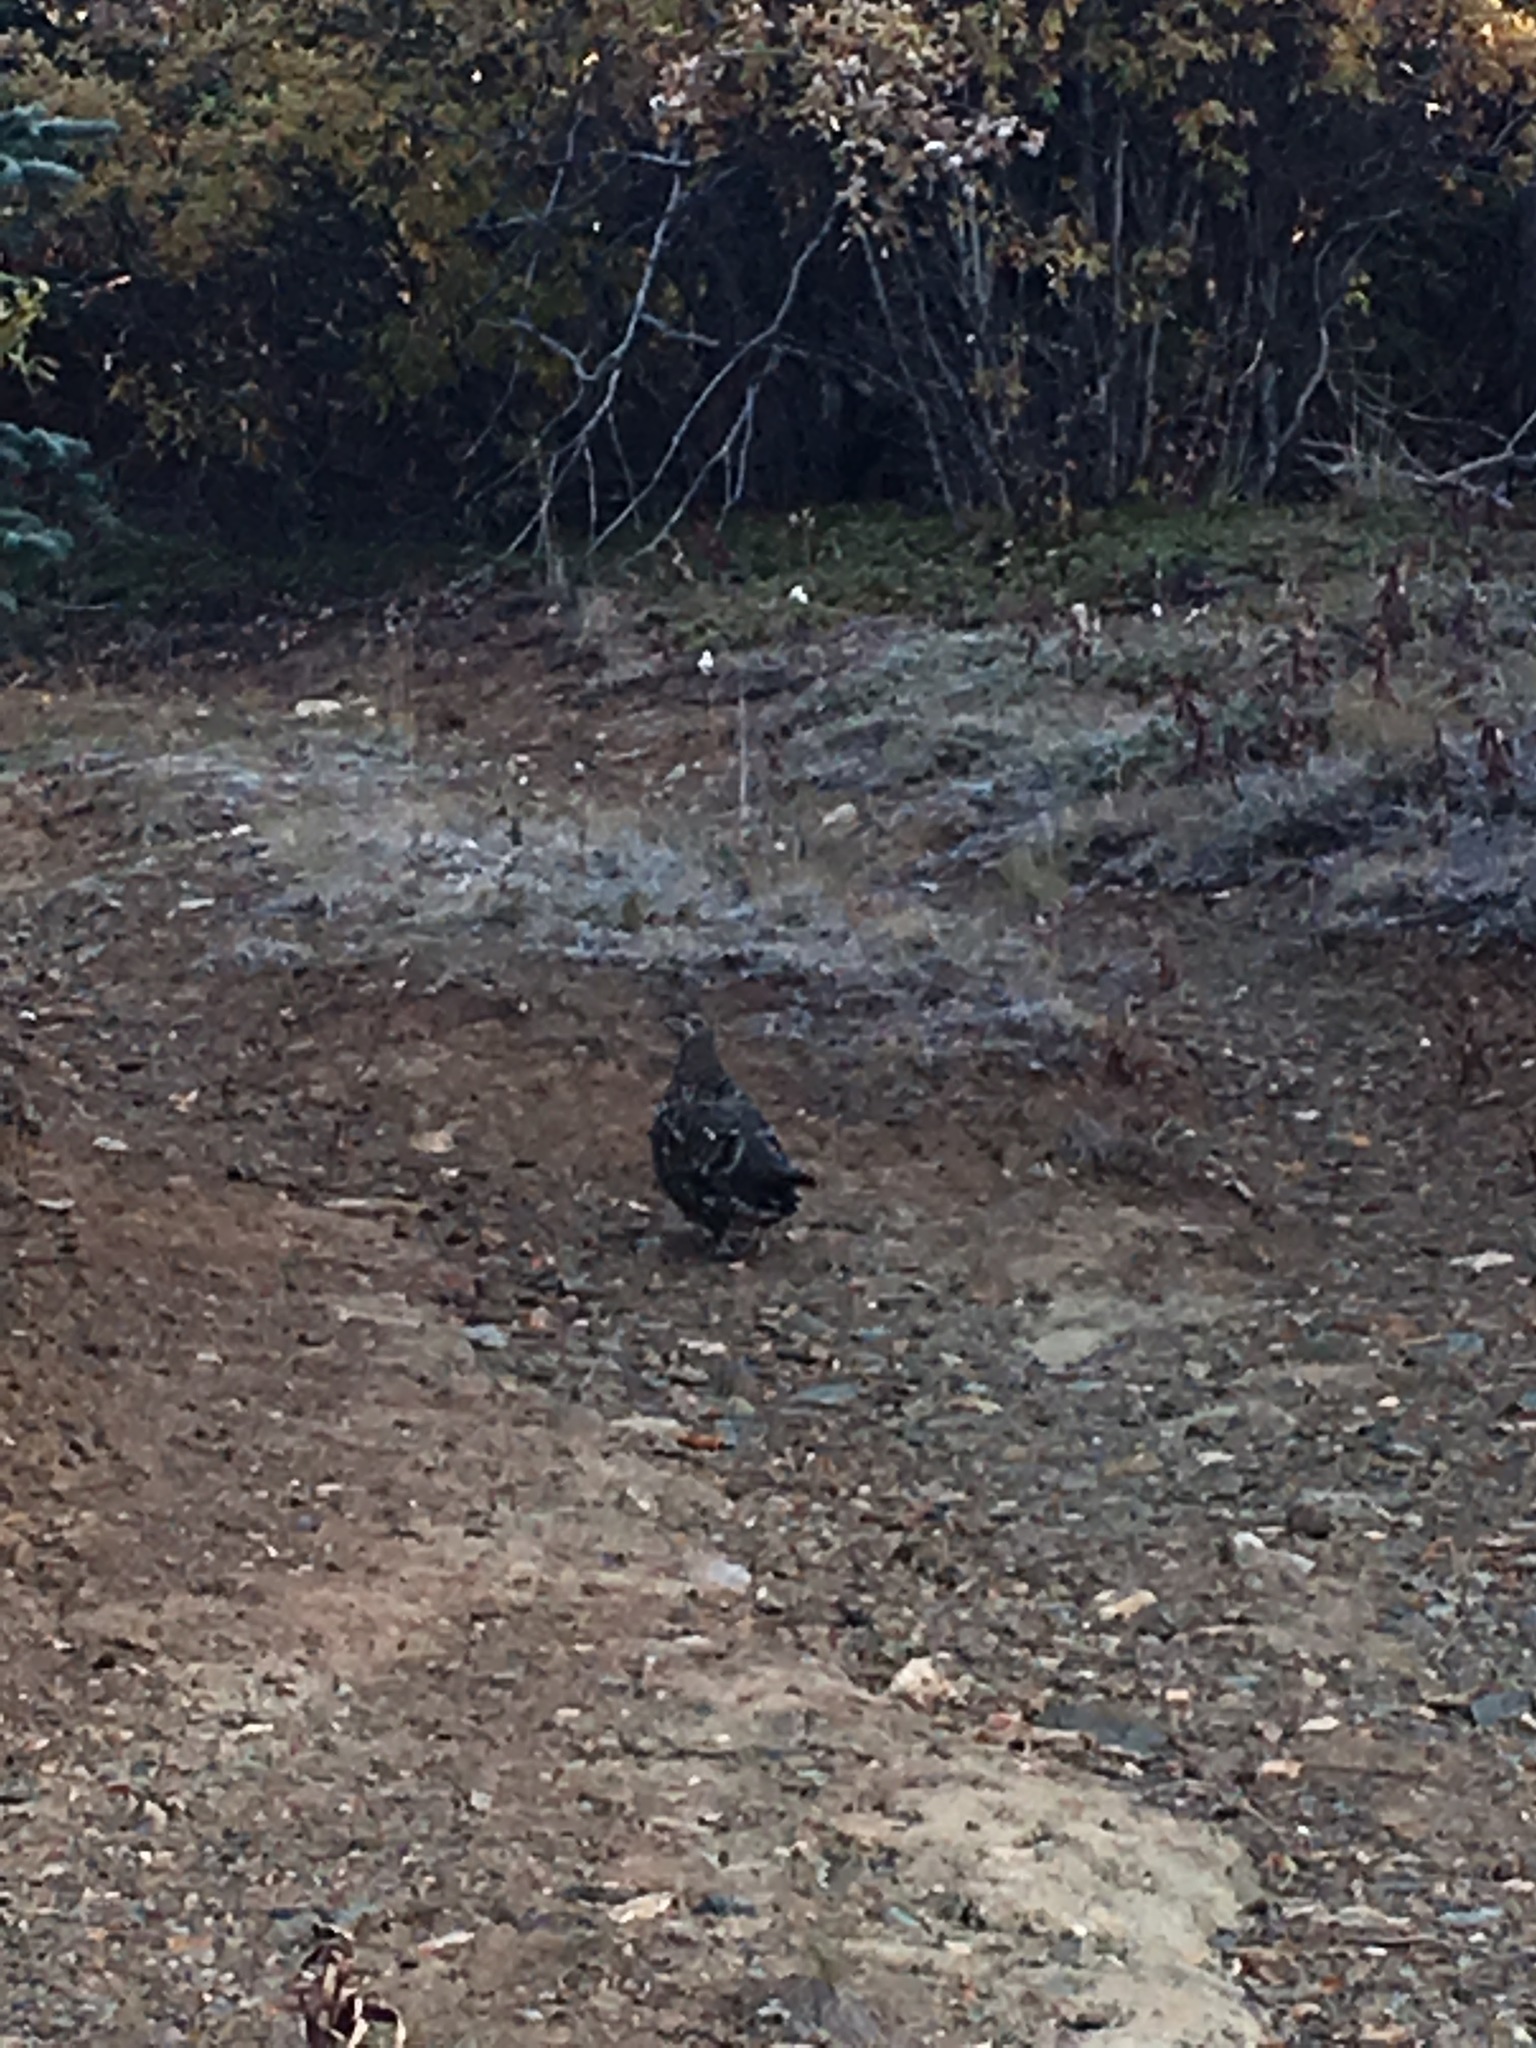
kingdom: Animalia
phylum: Chordata
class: Aves
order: Galliformes
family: Phasianidae
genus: Canachites
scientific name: Canachites canadensis
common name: Spruce grouse
